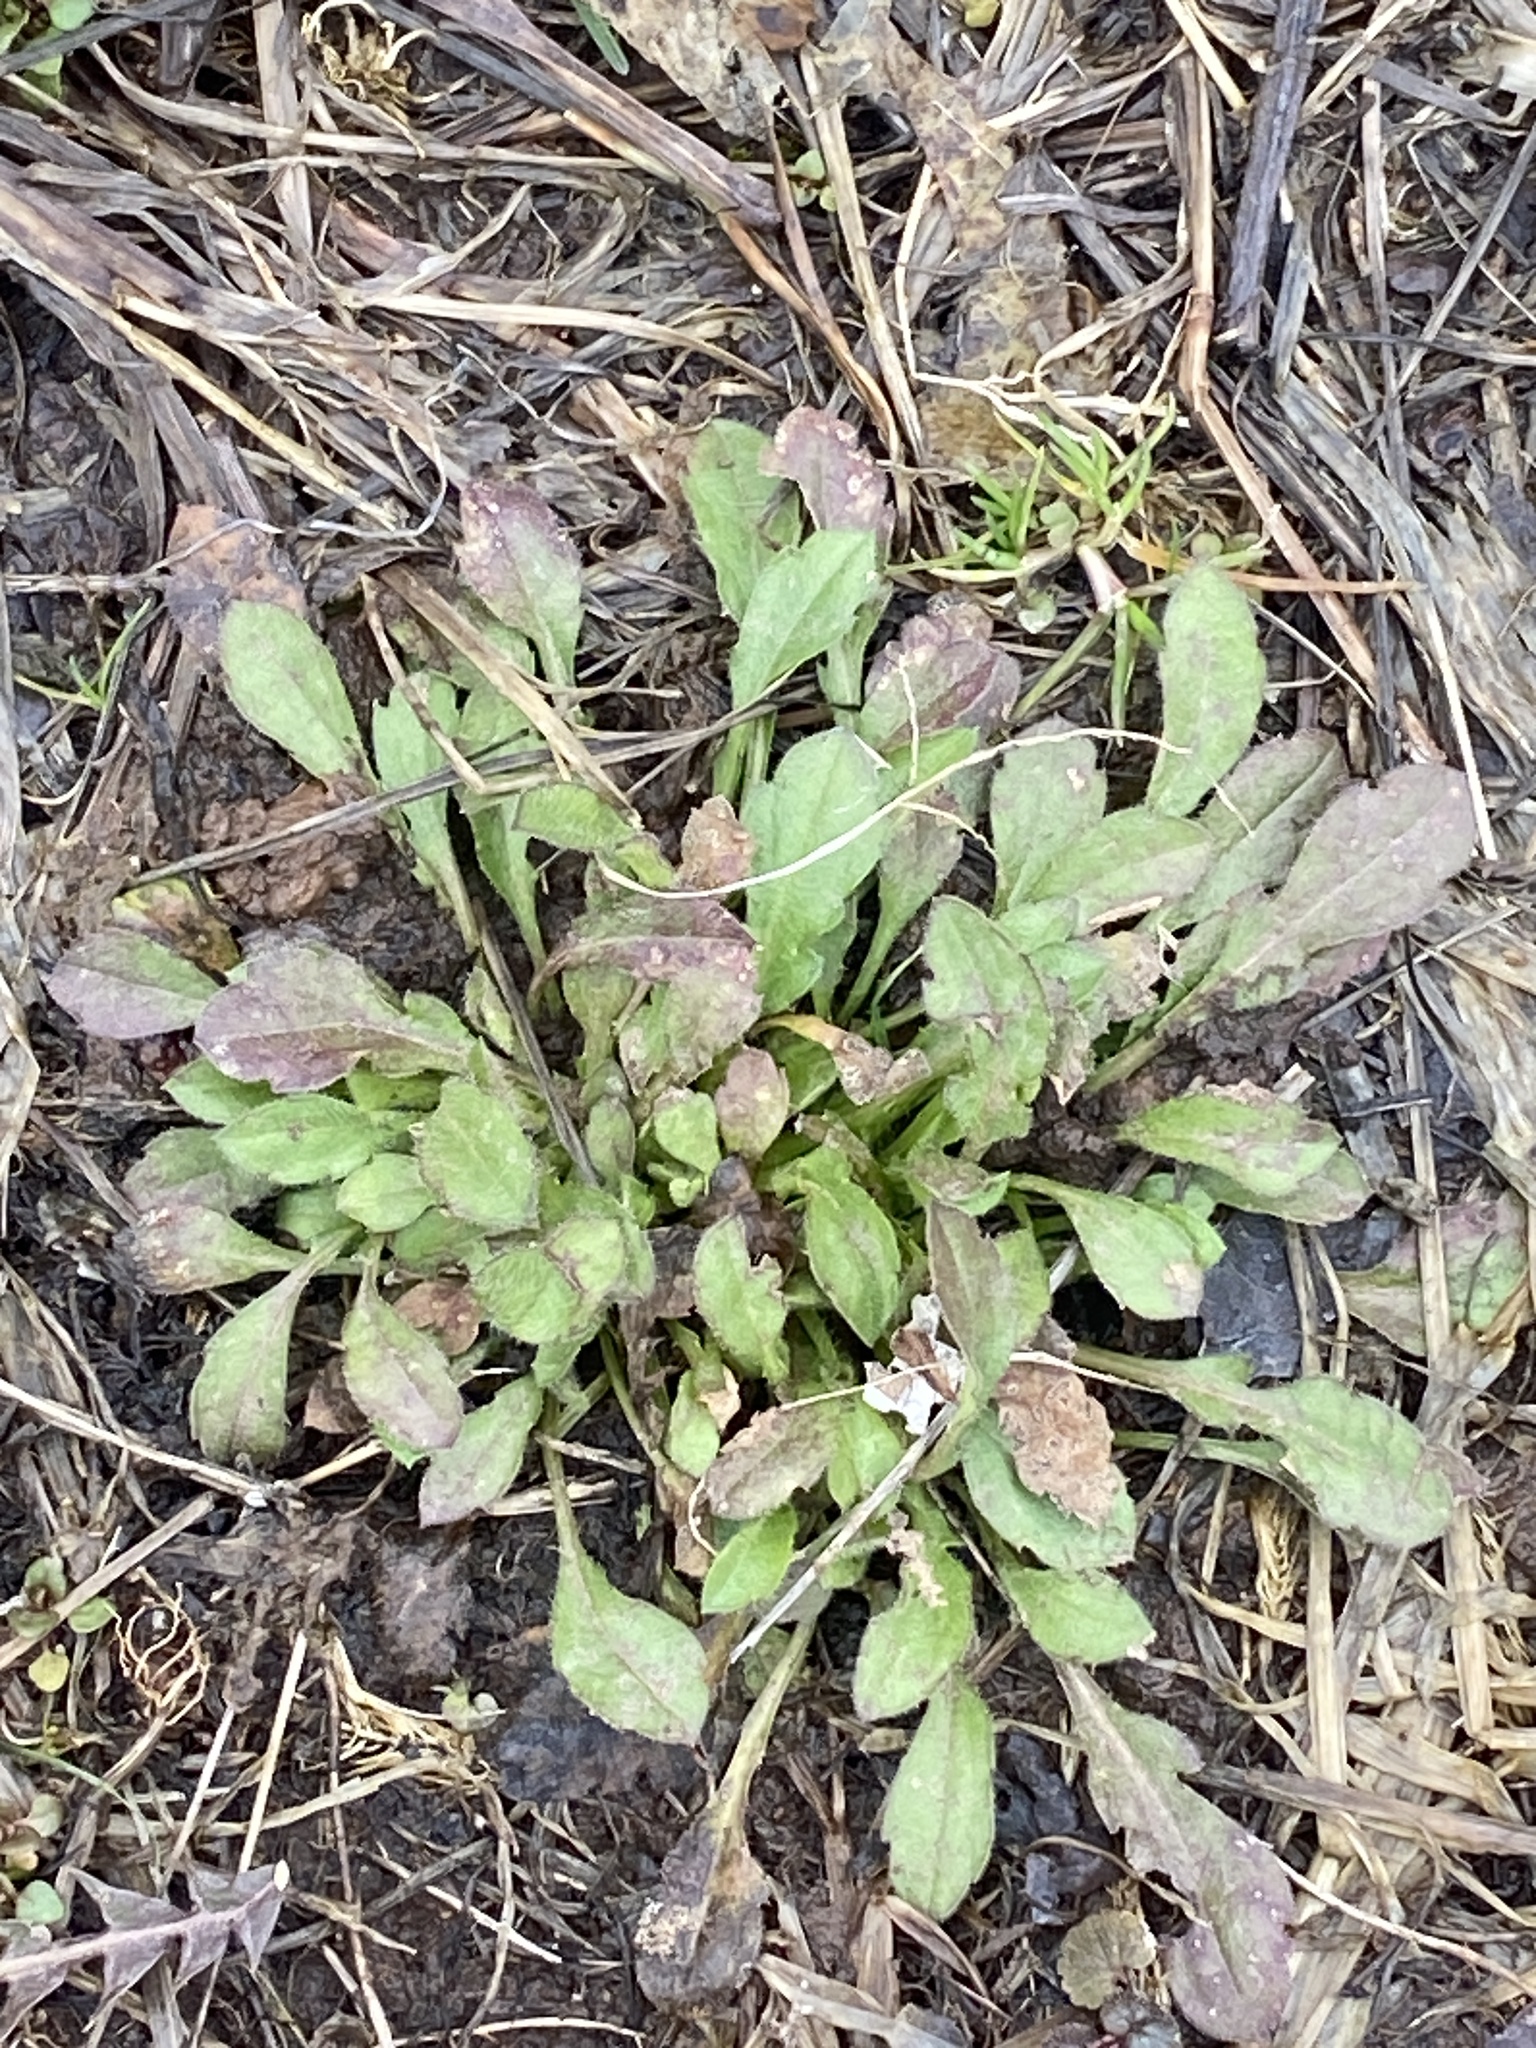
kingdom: Plantae
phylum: Tracheophyta
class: Magnoliopsida
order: Asterales
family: Asteraceae
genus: Erigeron
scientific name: Erigeron canadensis
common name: Canadian fleabane
